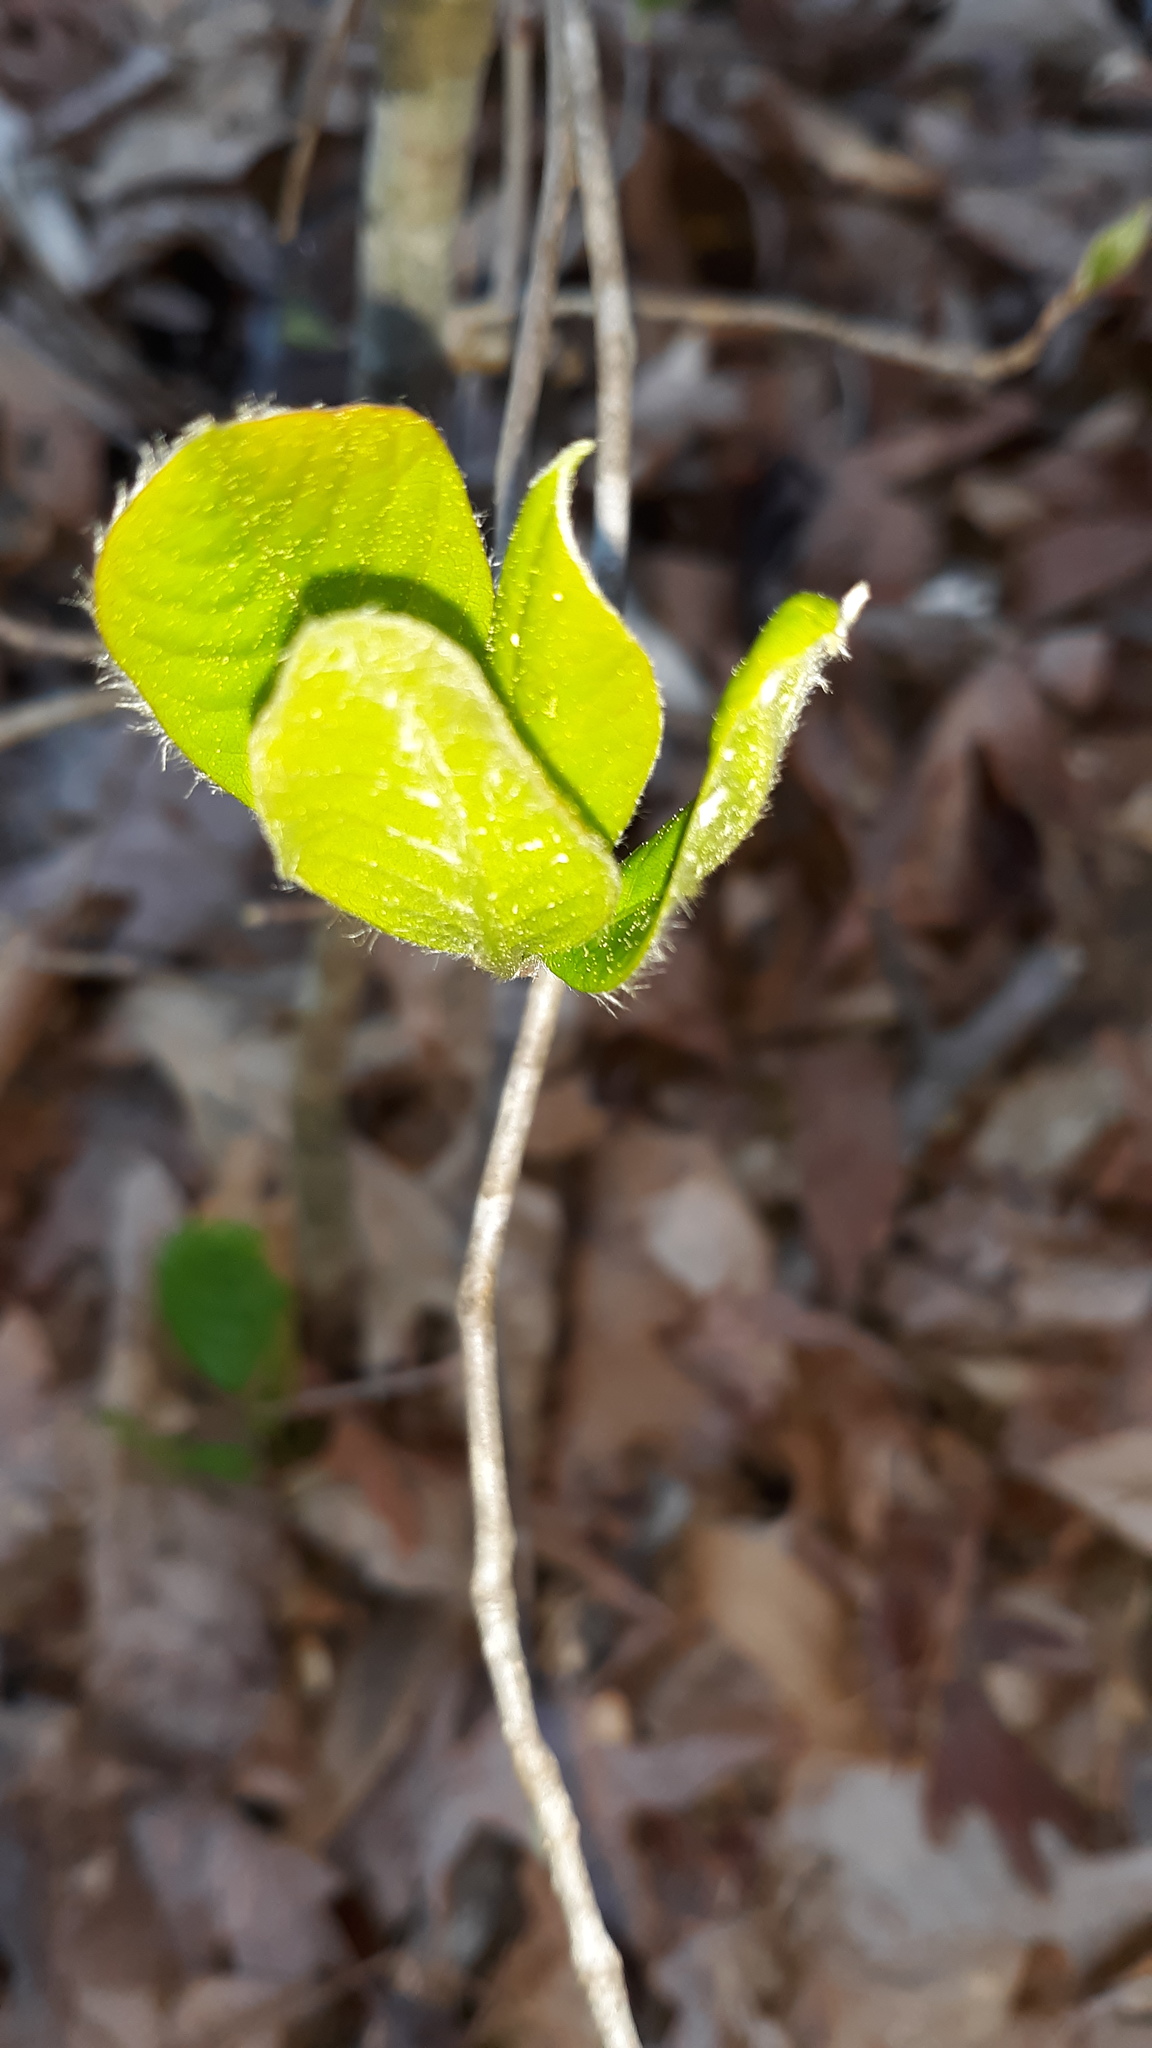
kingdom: Animalia
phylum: Arthropoda
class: Insecta
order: Coleoptera
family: Curculionidae
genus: Lechriops
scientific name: Lechriops oculatus
